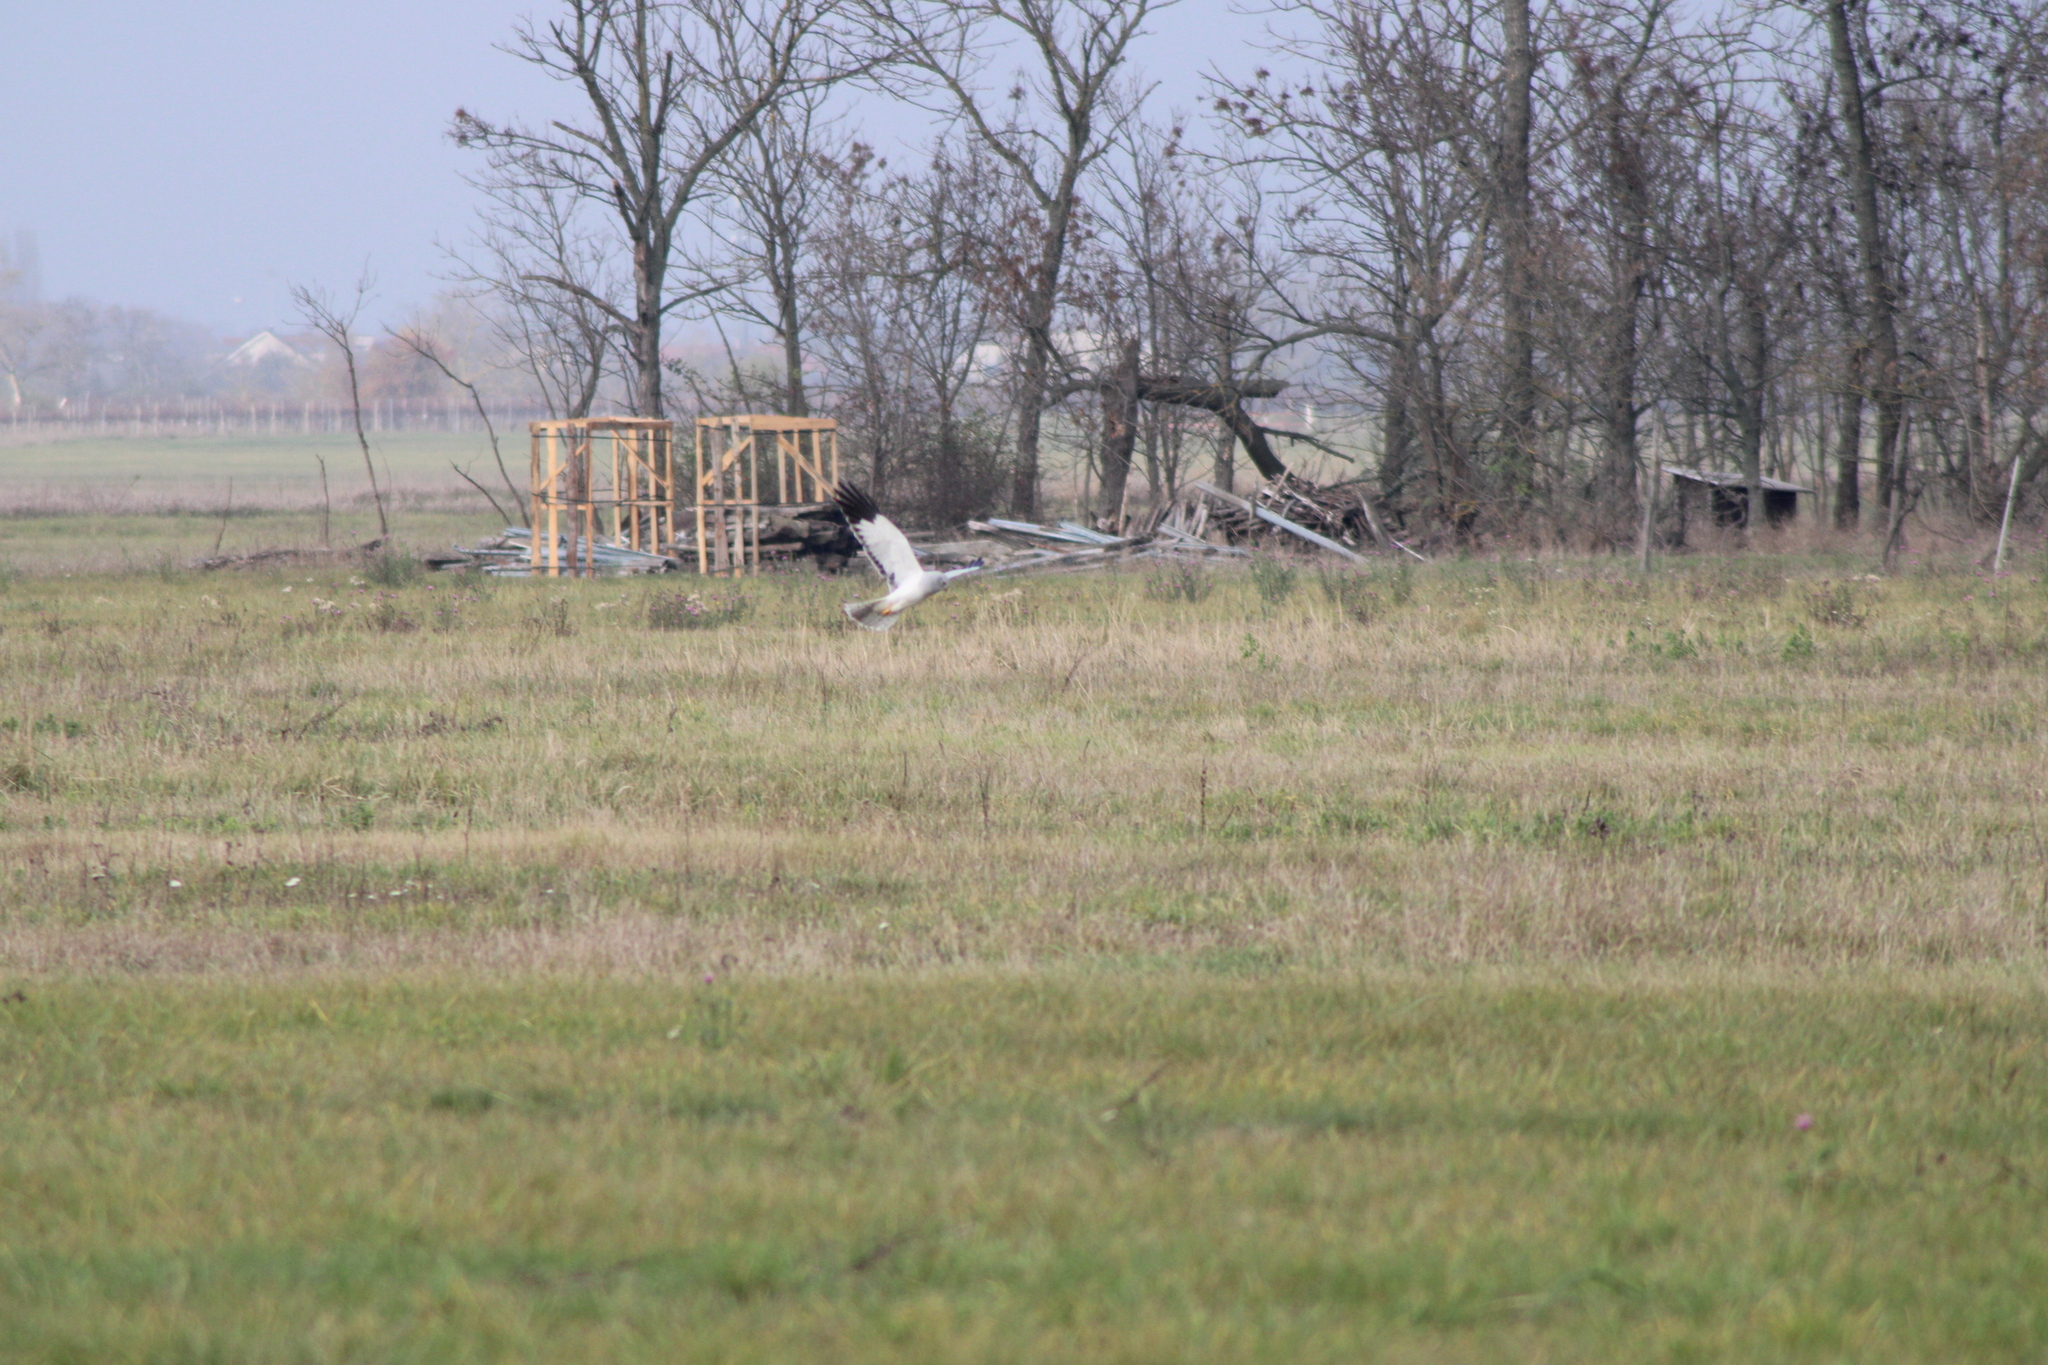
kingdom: Animalia
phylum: Chordata
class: Aves
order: Accipitriformes
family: Accipitridae
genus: Circus
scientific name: Circus cyaneus
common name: Hen harrier
